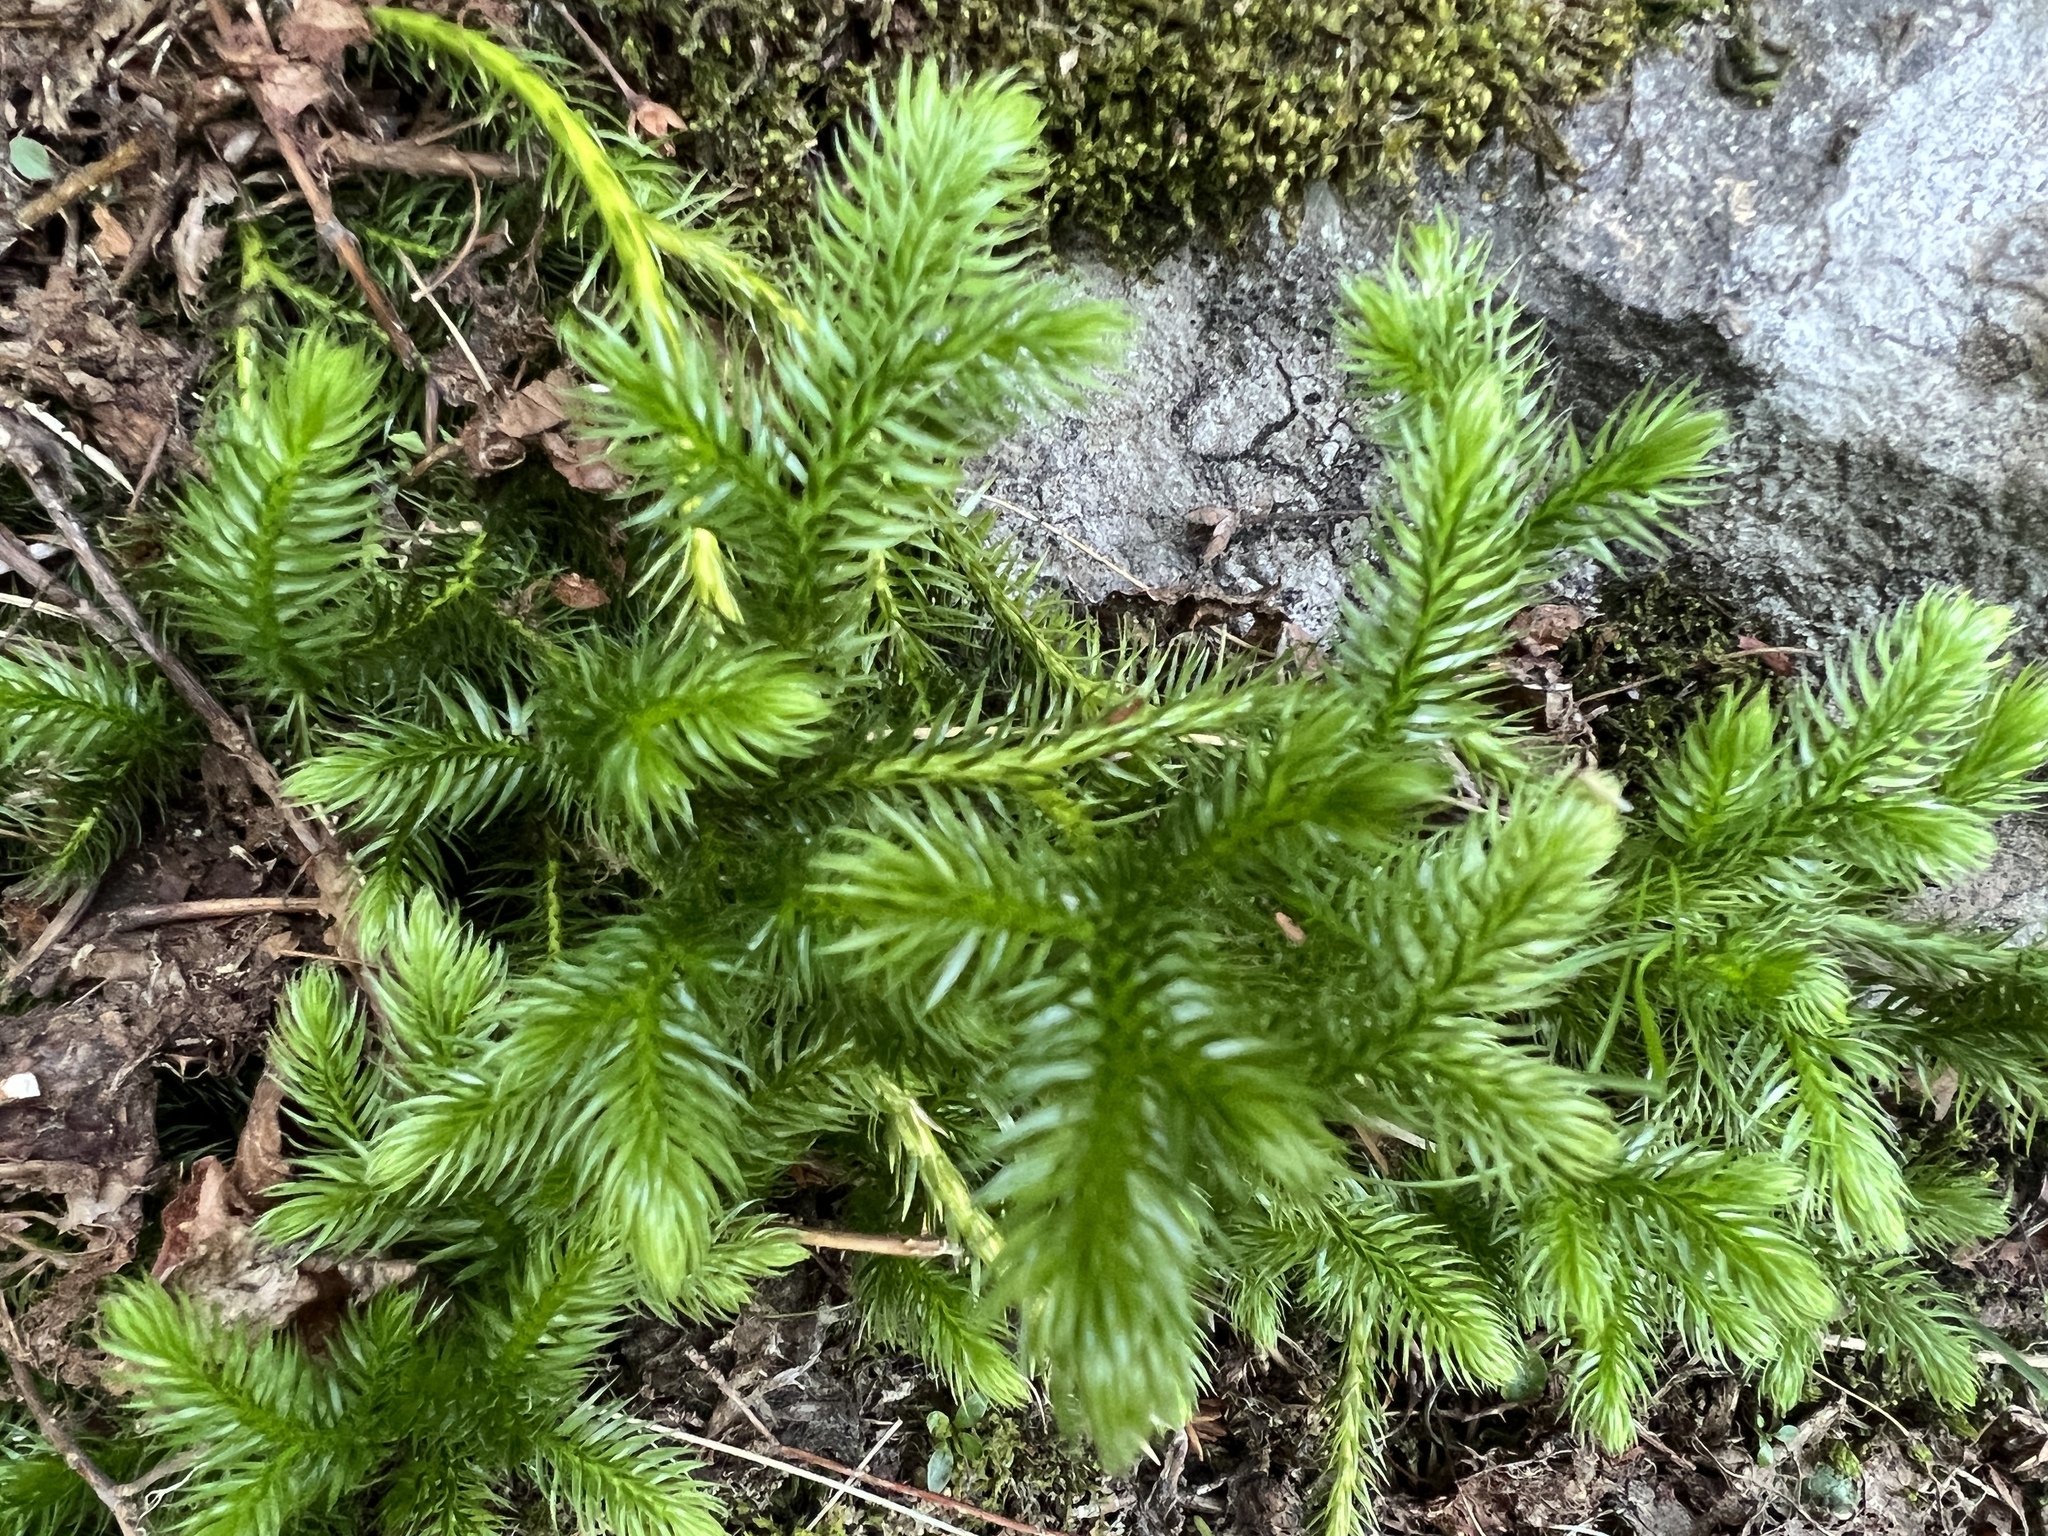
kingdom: Plantae
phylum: Tracheophyta
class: Lycopodiopsida
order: Lycopodiales
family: Lycopodiaceae
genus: Lycopodium
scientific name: Lycopodium clavatum
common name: Stag's-horn clubmoss
